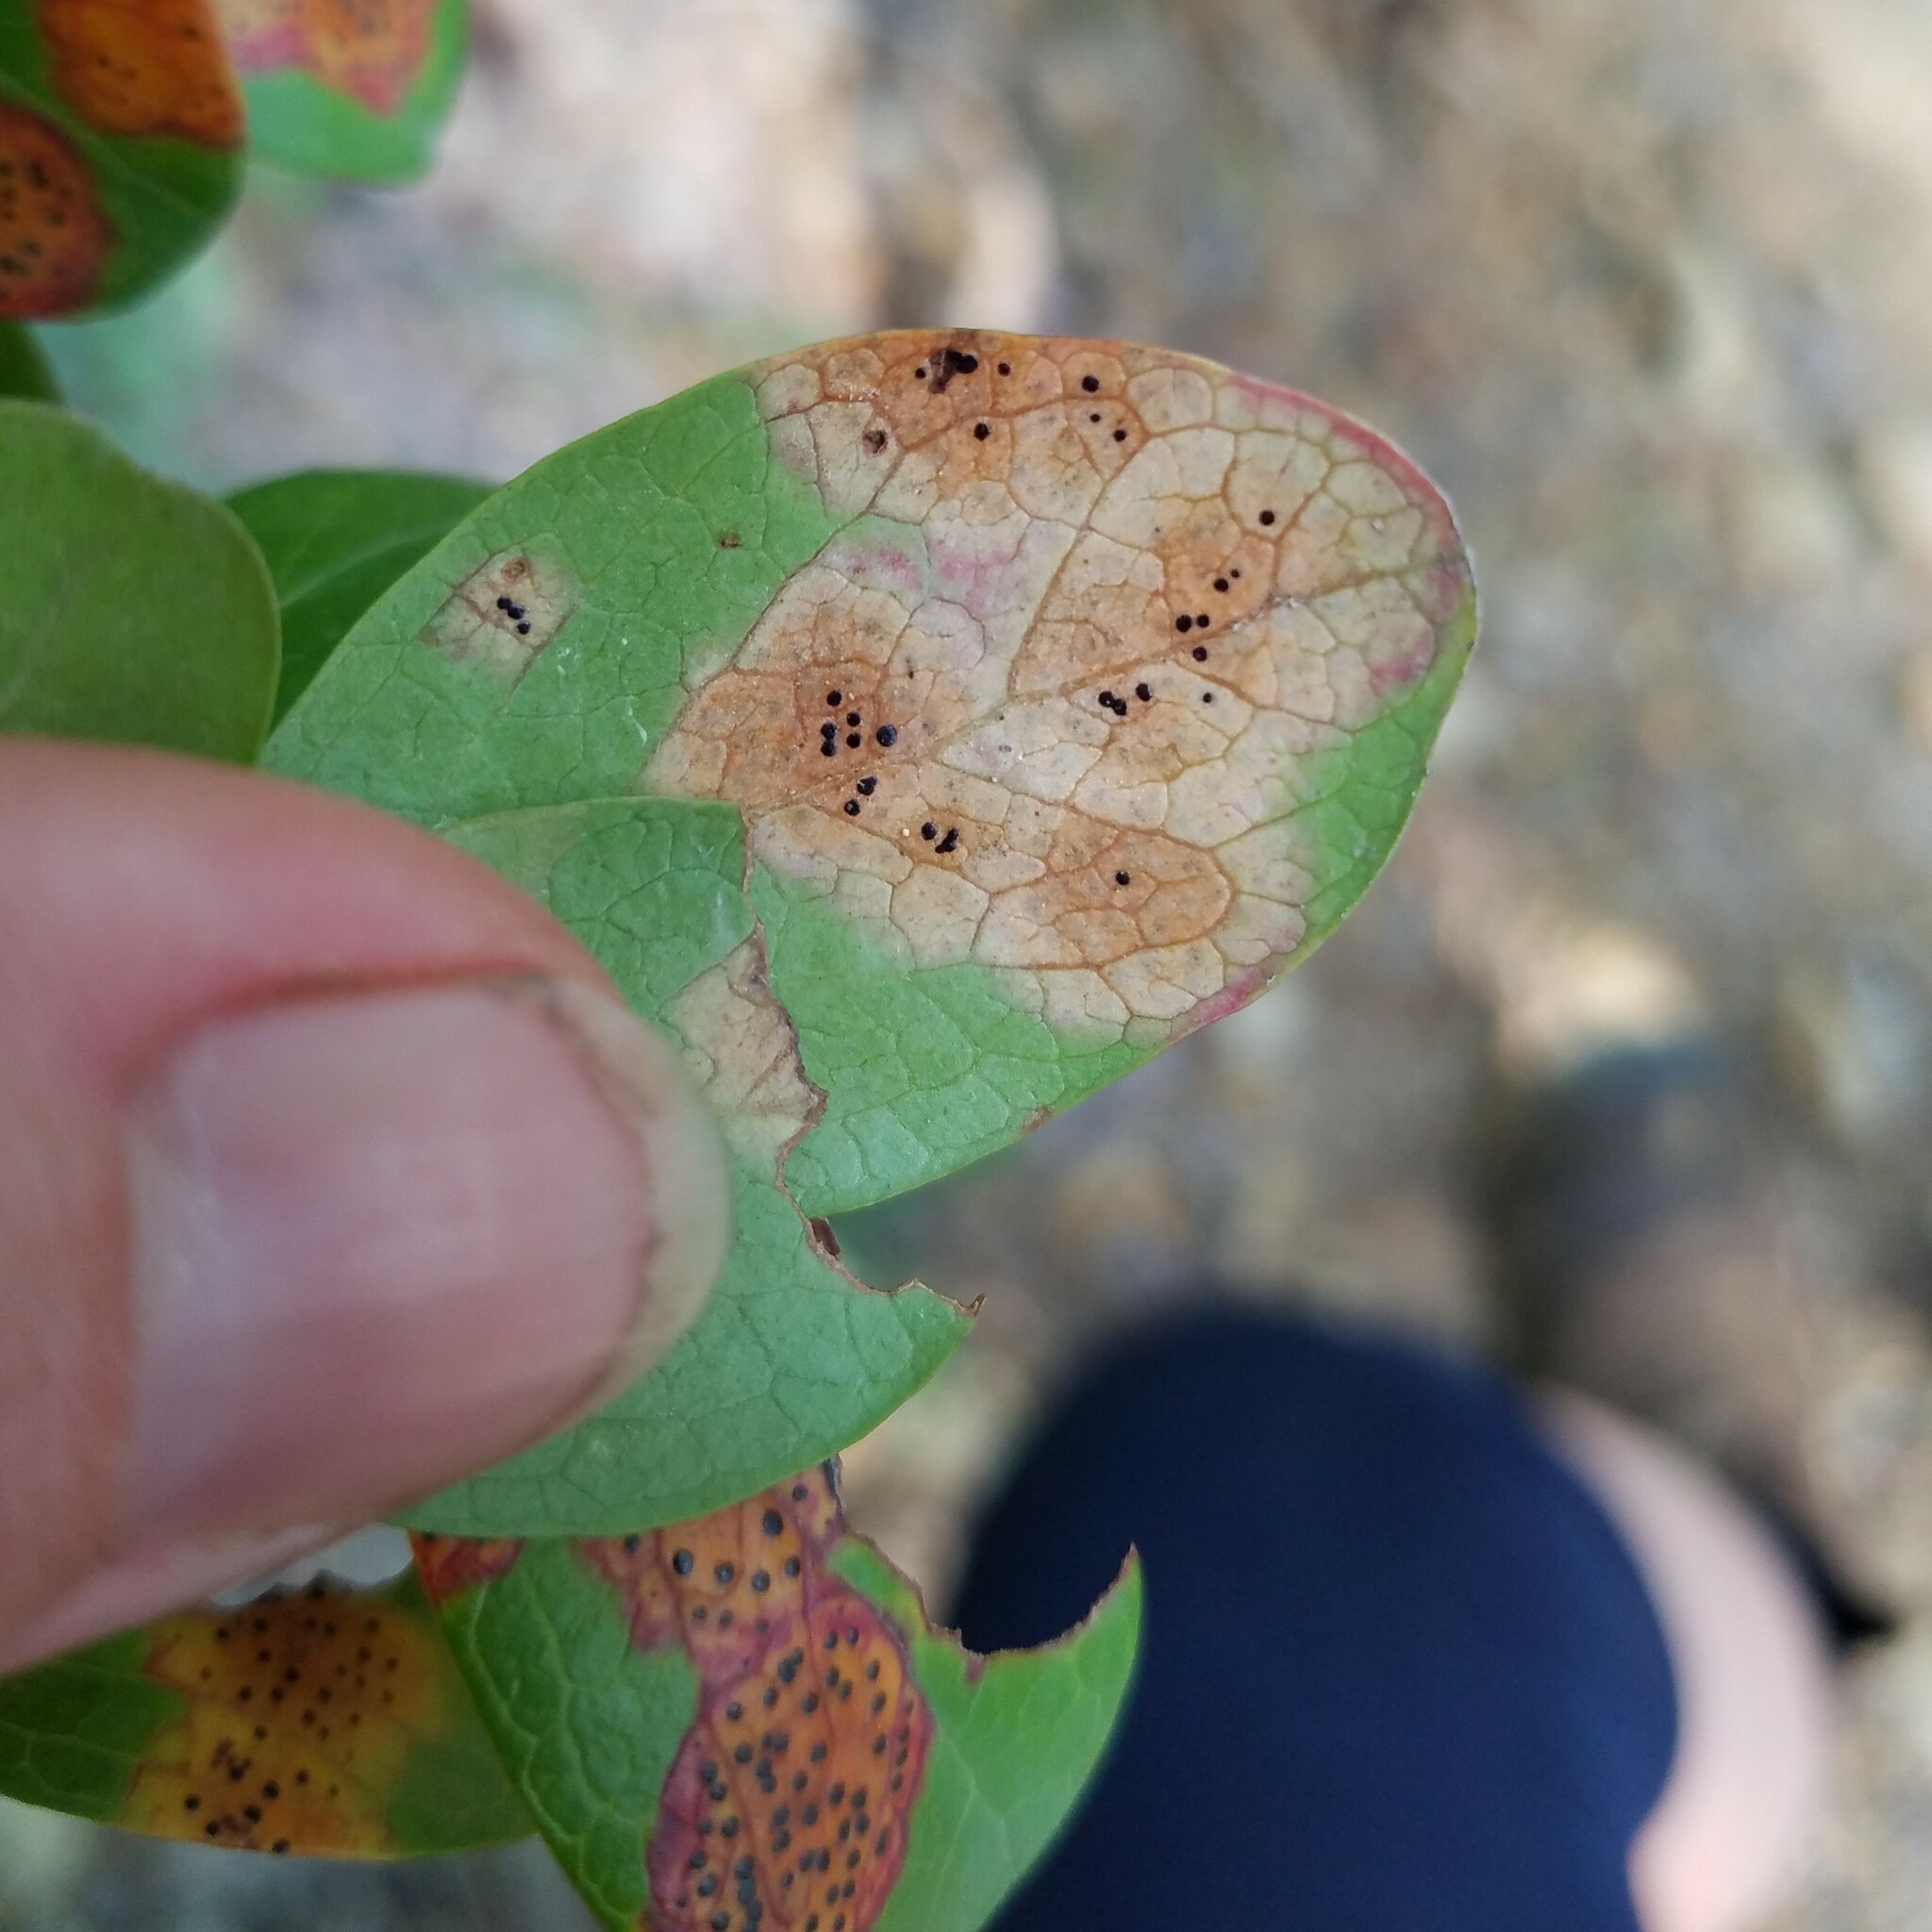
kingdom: Fungi
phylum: Ascomycota
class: Sordariomycetes
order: Phyllachorales
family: Phyllachoraceae
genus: Ophiodothella
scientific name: Ophiodothella angustissima
